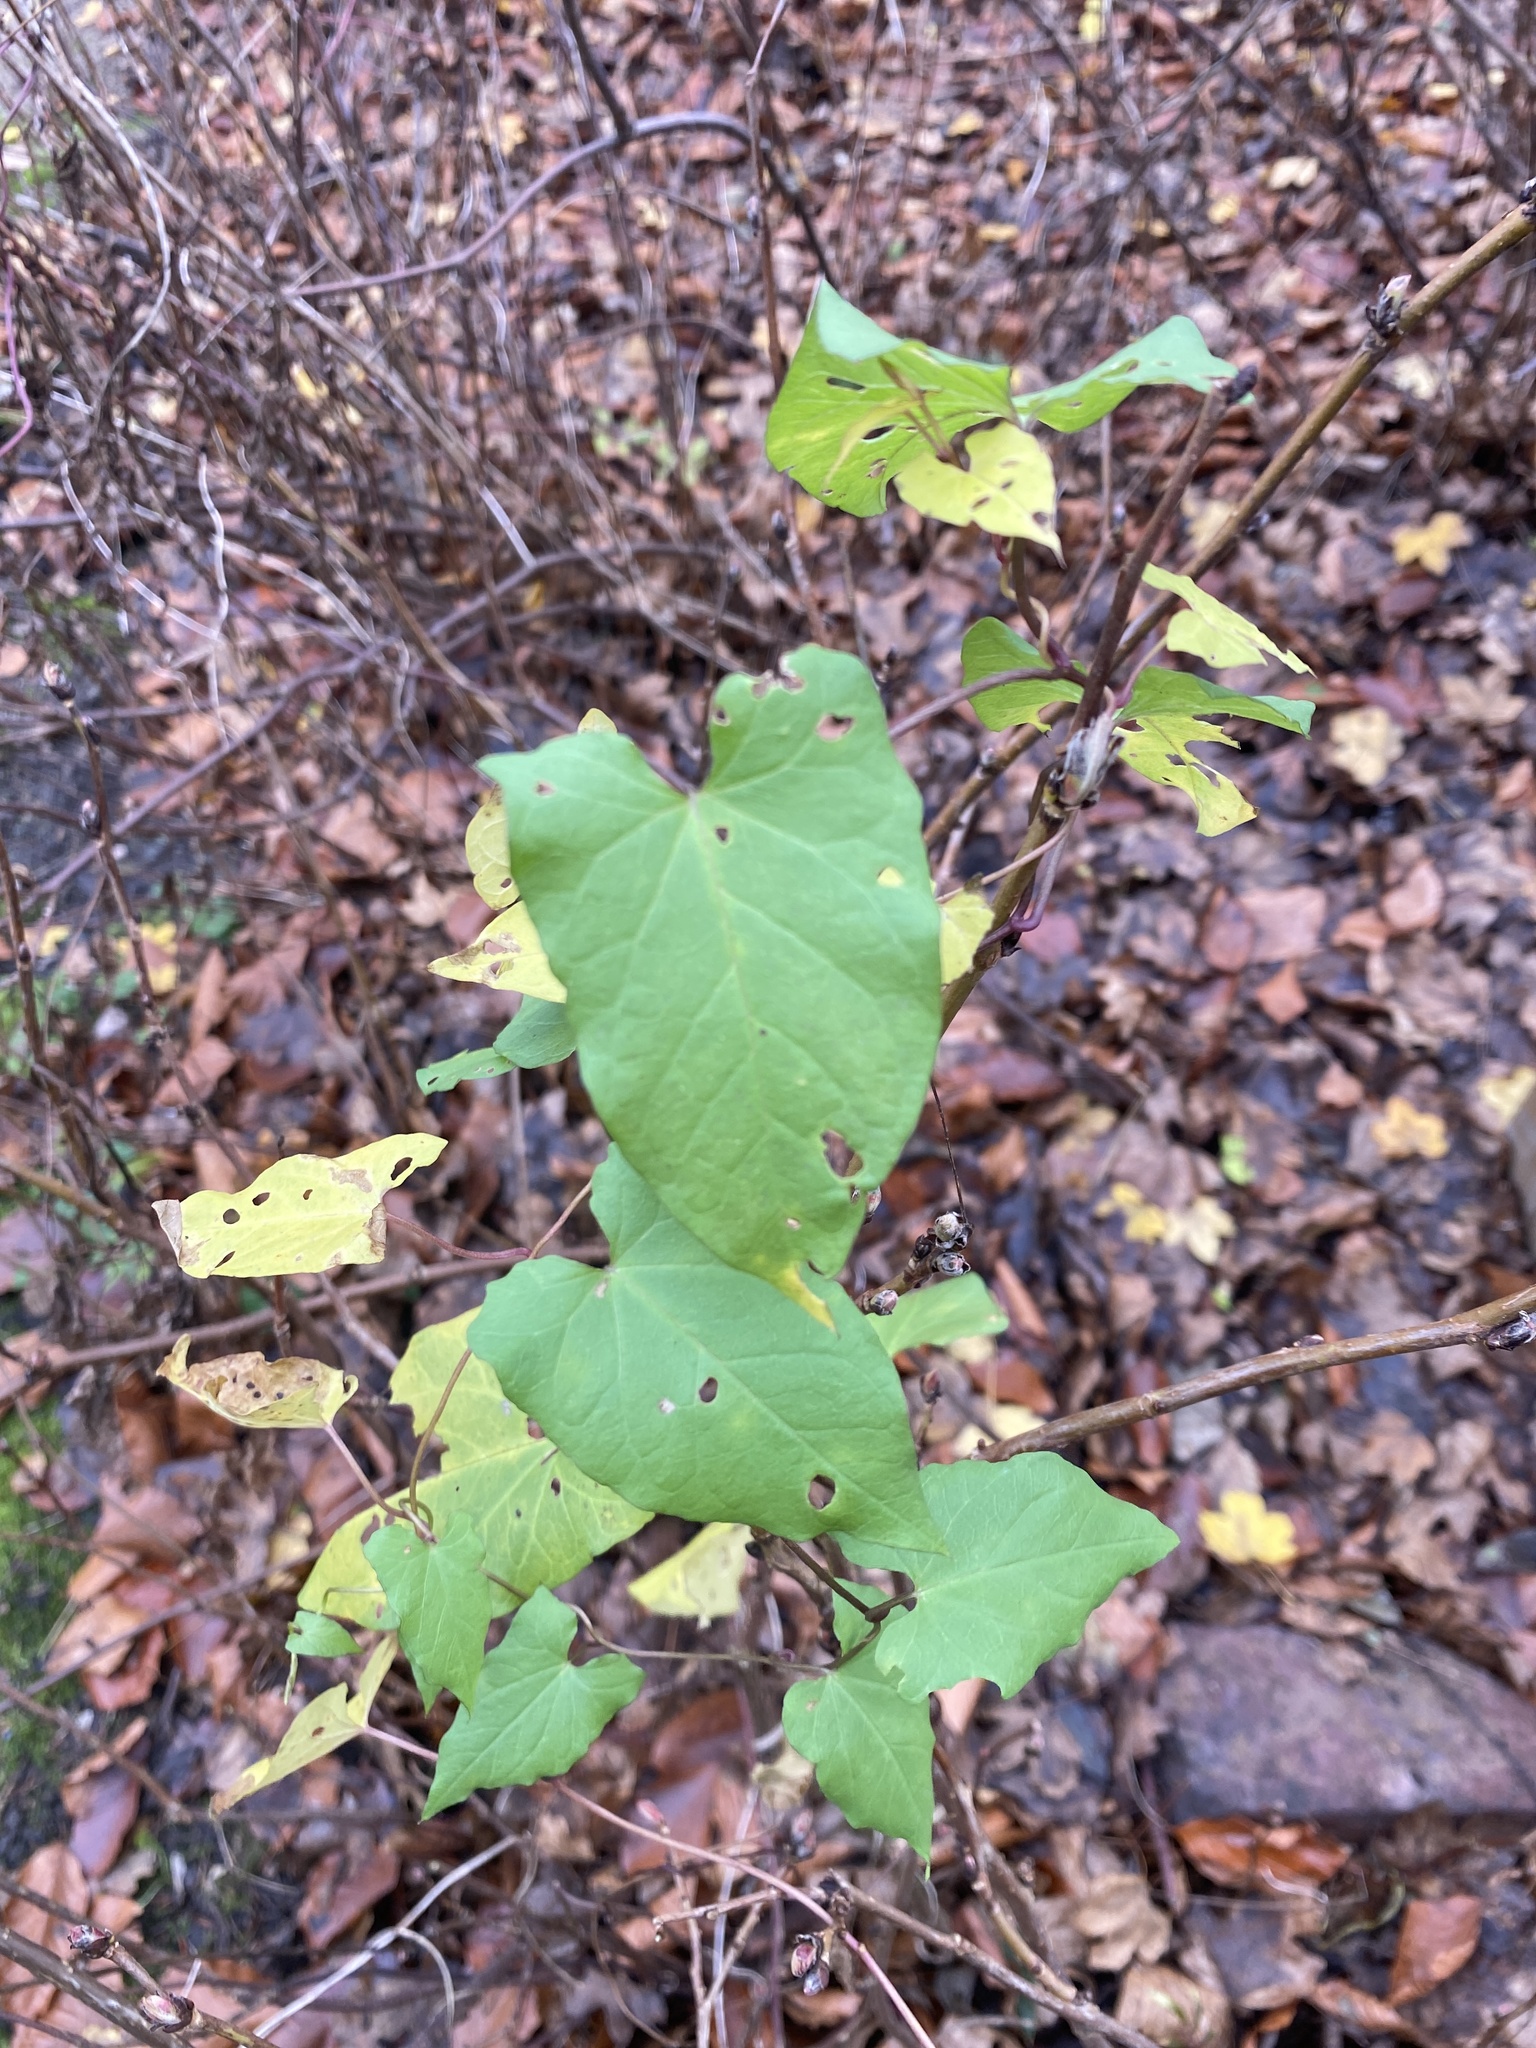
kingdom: Plantae
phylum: Tracheophyta
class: Magnoliopsida
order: Solanales
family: Convolvulaceae
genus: Calystegia
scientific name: Calystegia sepium
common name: Hedge bindweed
